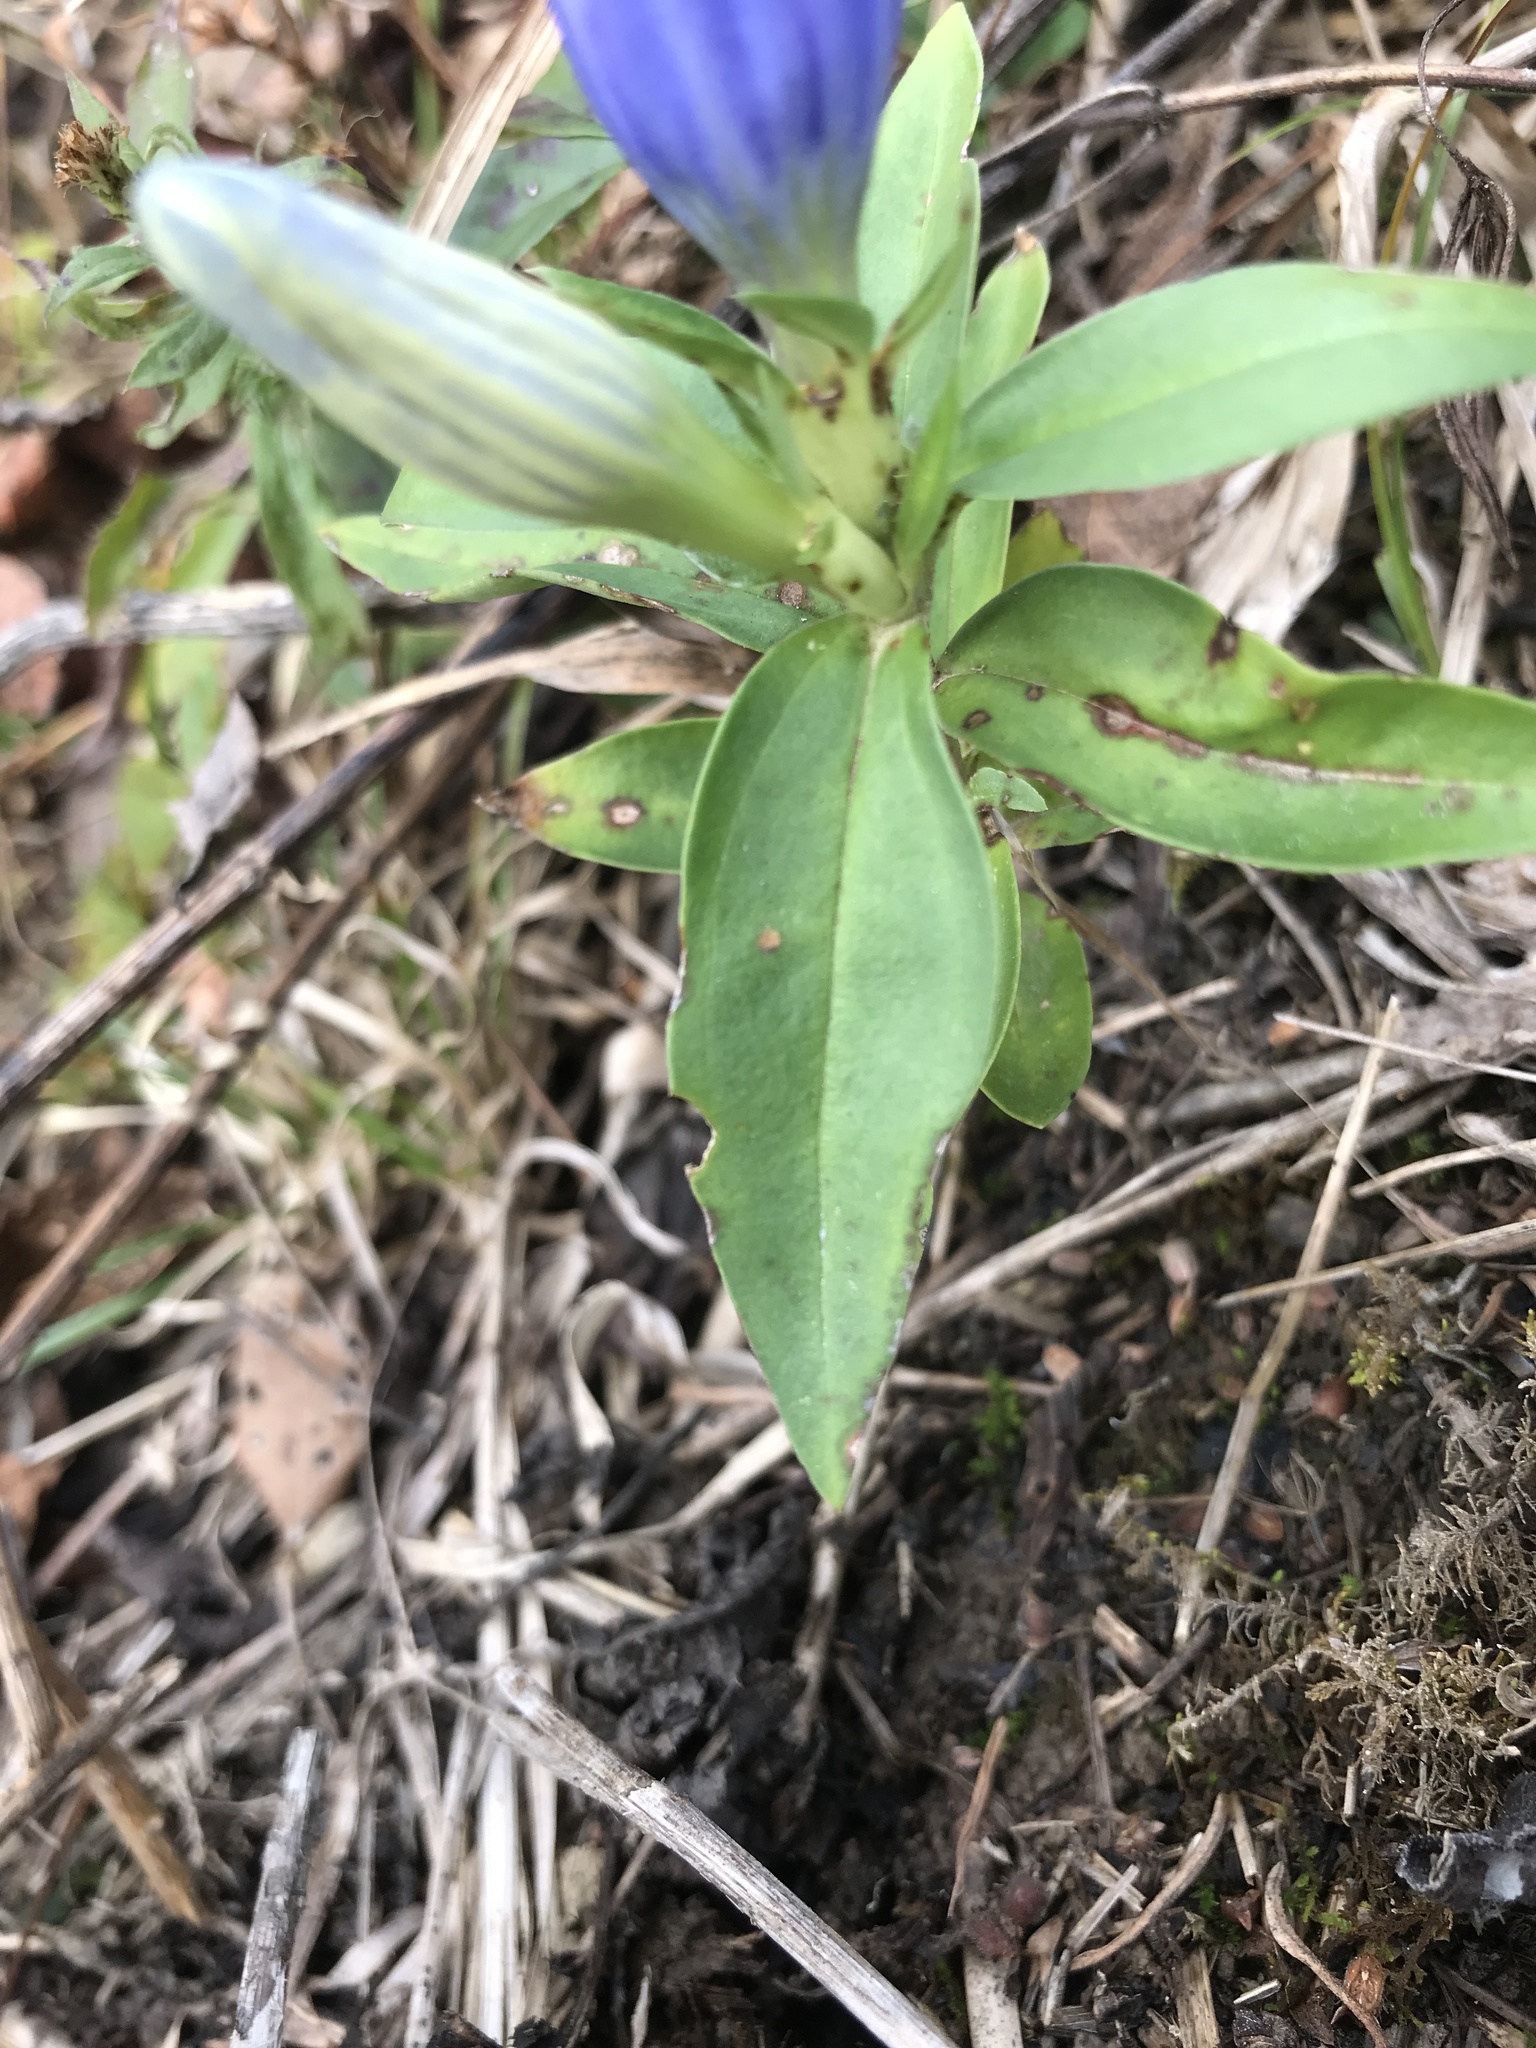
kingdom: Plantae
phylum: Tracheophyta
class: Magnoliopsida
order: Gentianales
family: Gentianaceae
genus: Gentiana
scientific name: Gentiana saponaria
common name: Soapwort gentian
